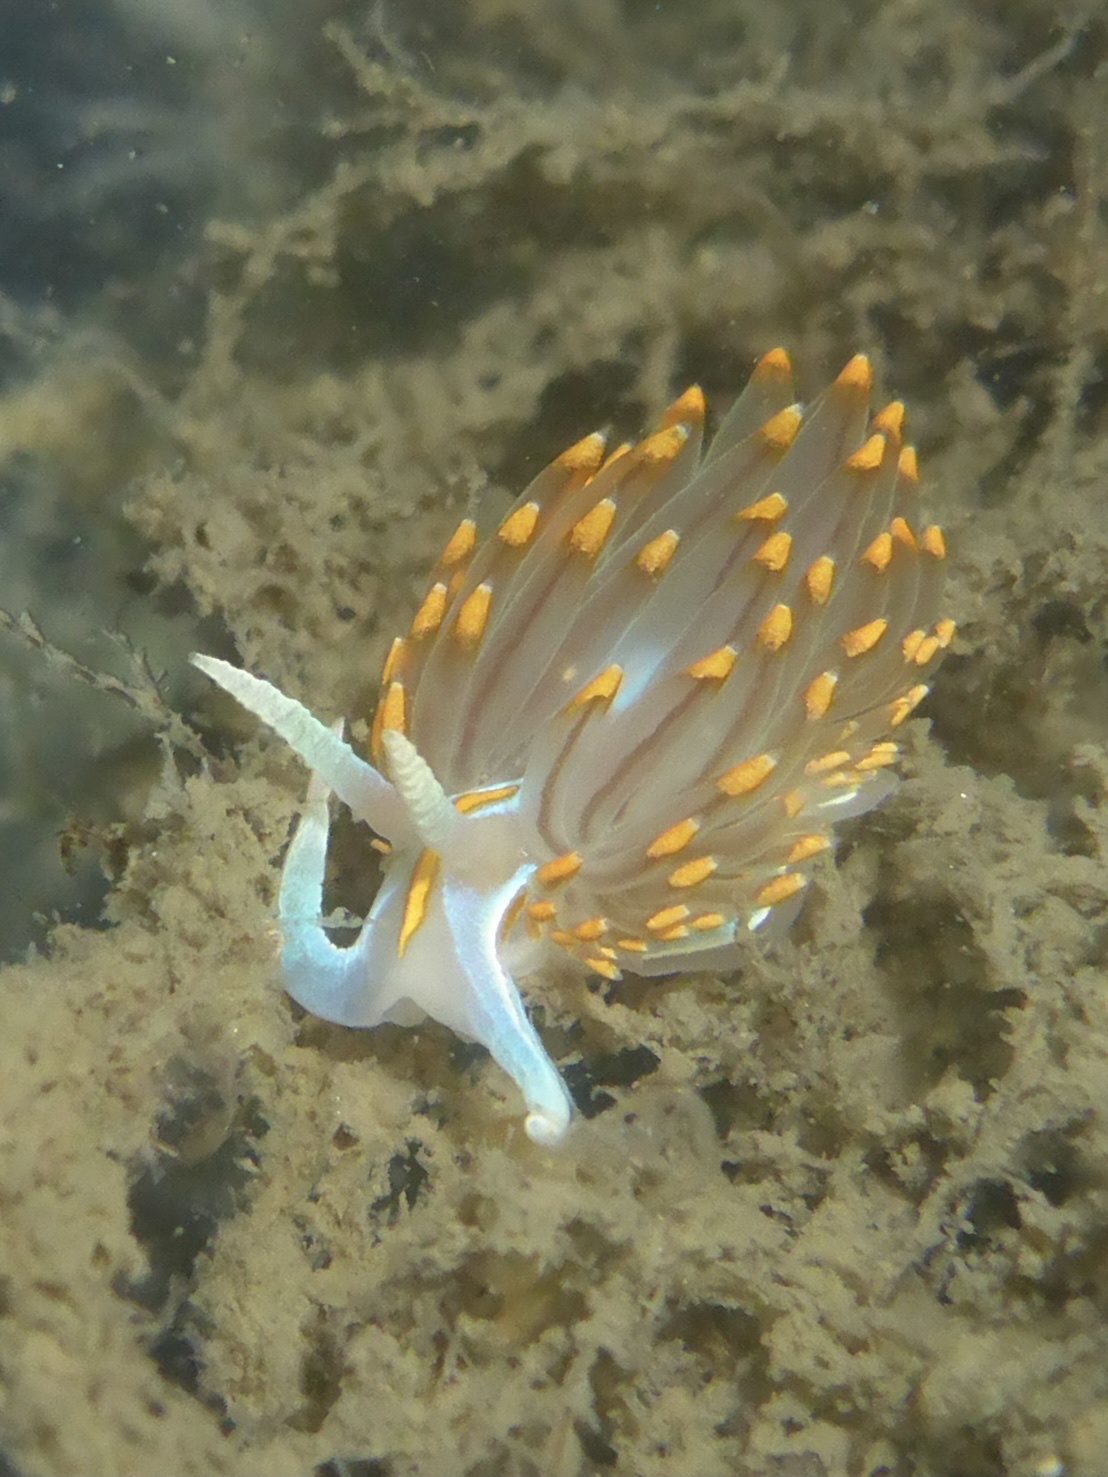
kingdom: Animalia
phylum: Mollusca
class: Gastropoda
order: Nudibranchia
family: Myrrhinidae
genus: Hermissenda
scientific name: Hermissenda opalescens
